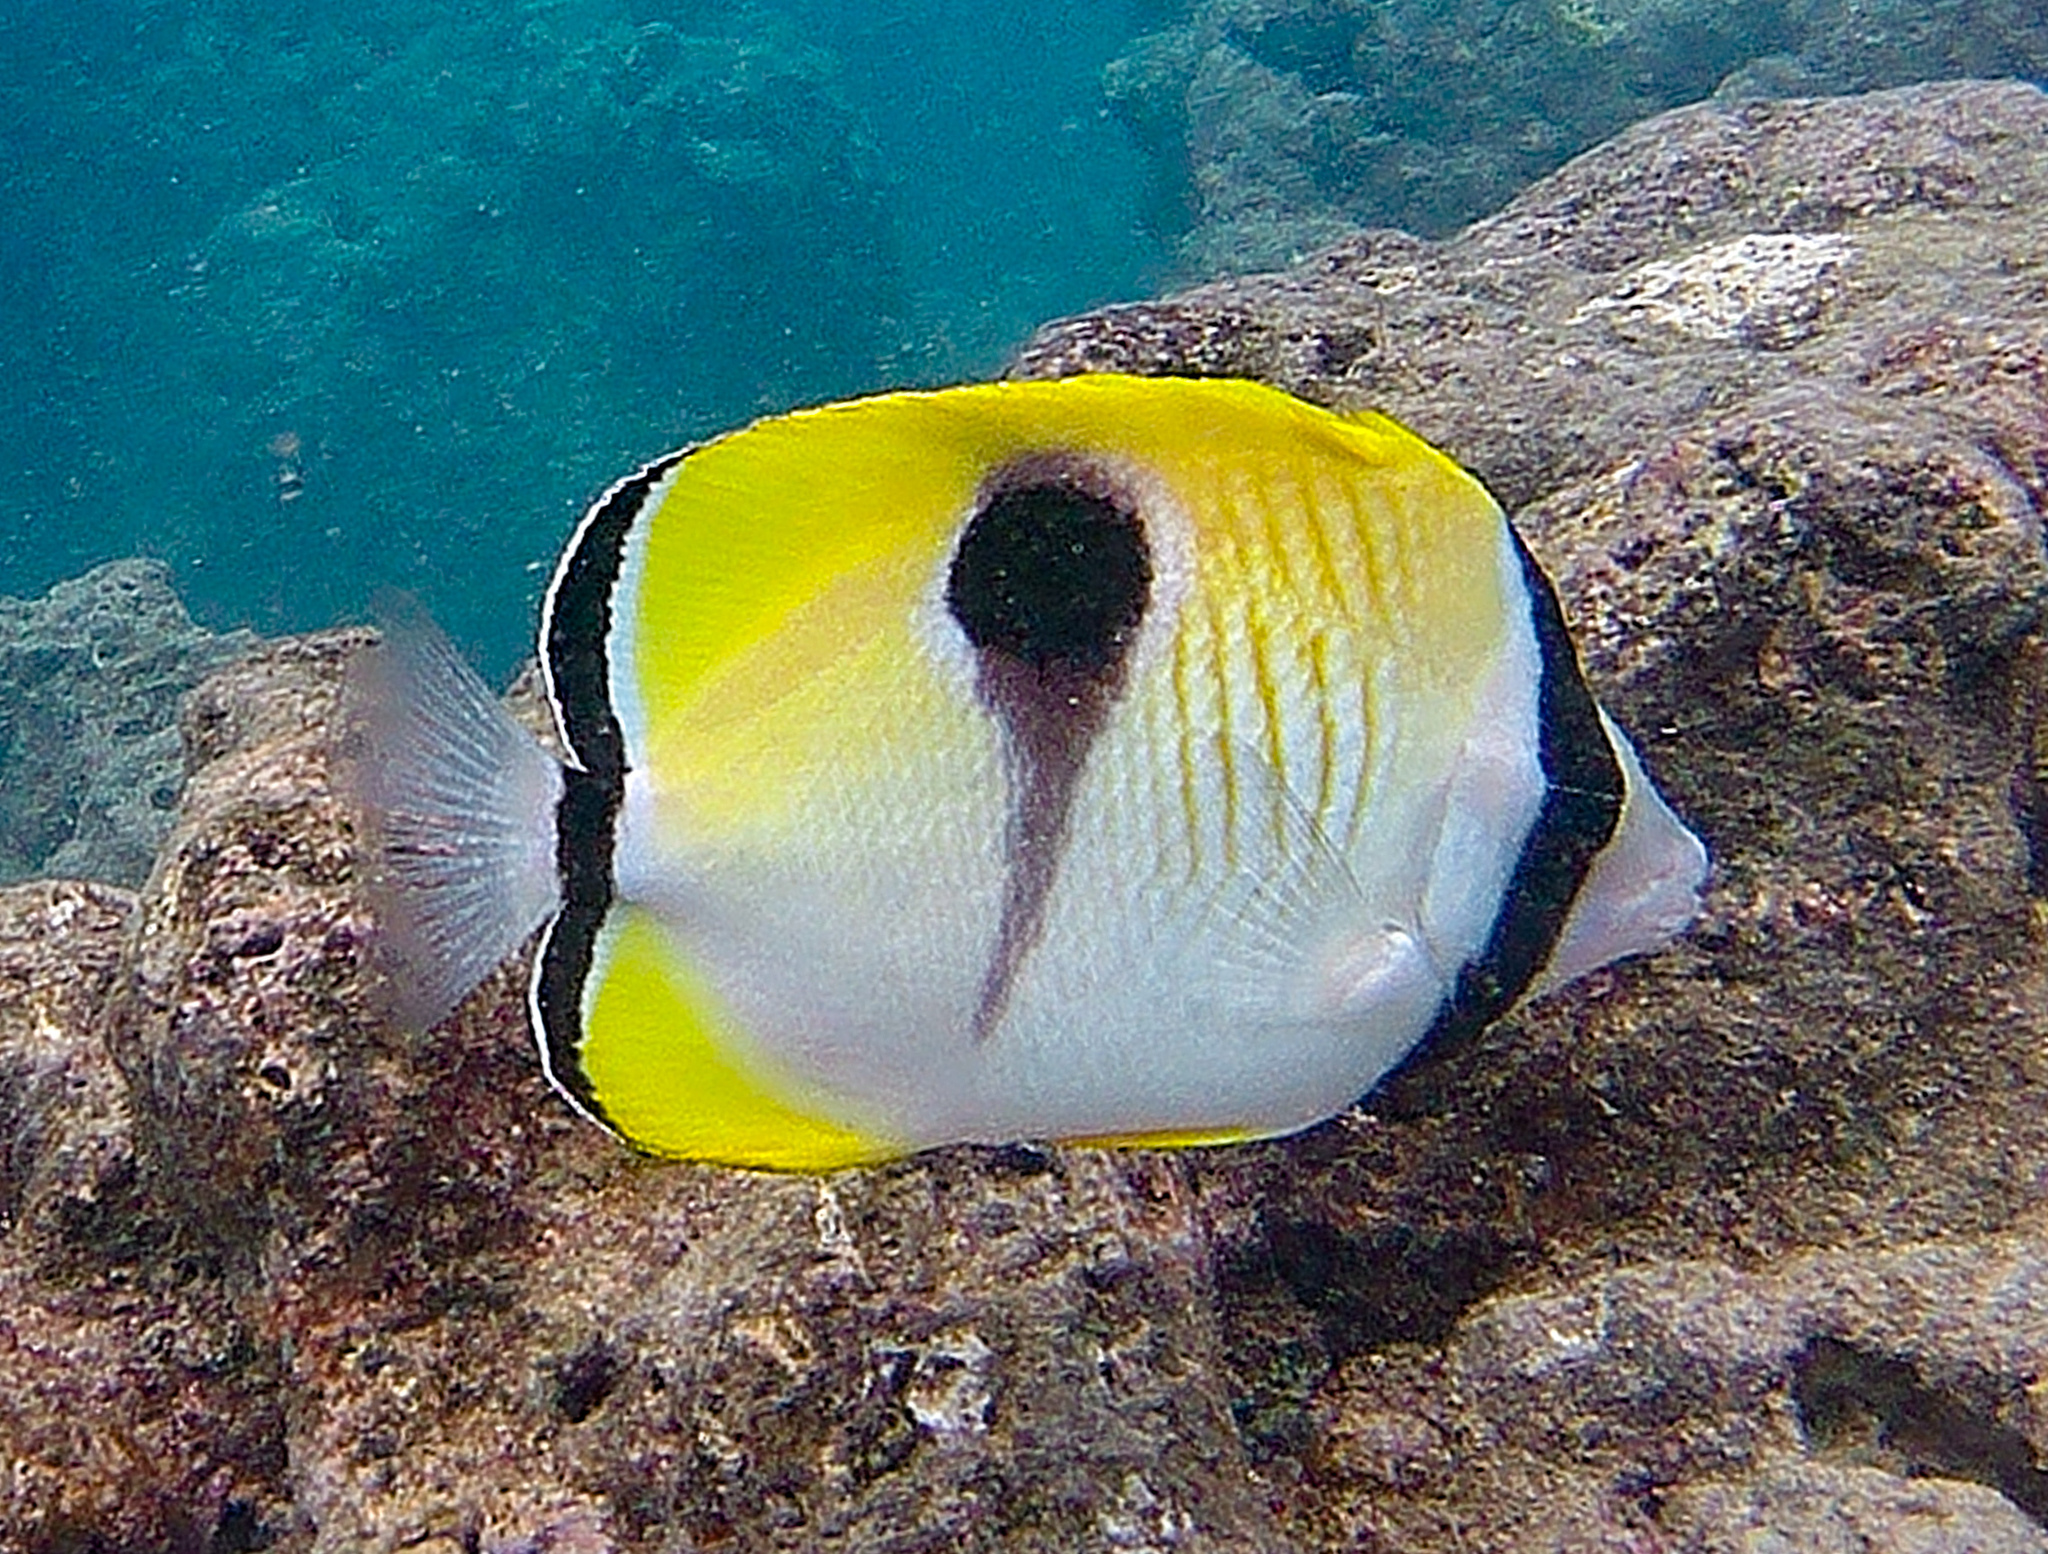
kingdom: Animalia
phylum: Chordata
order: Perciformes
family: Chaetodontidae
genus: Chaetodon
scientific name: Chaetodon unimaculatus
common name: Teardrop butterflyfish
